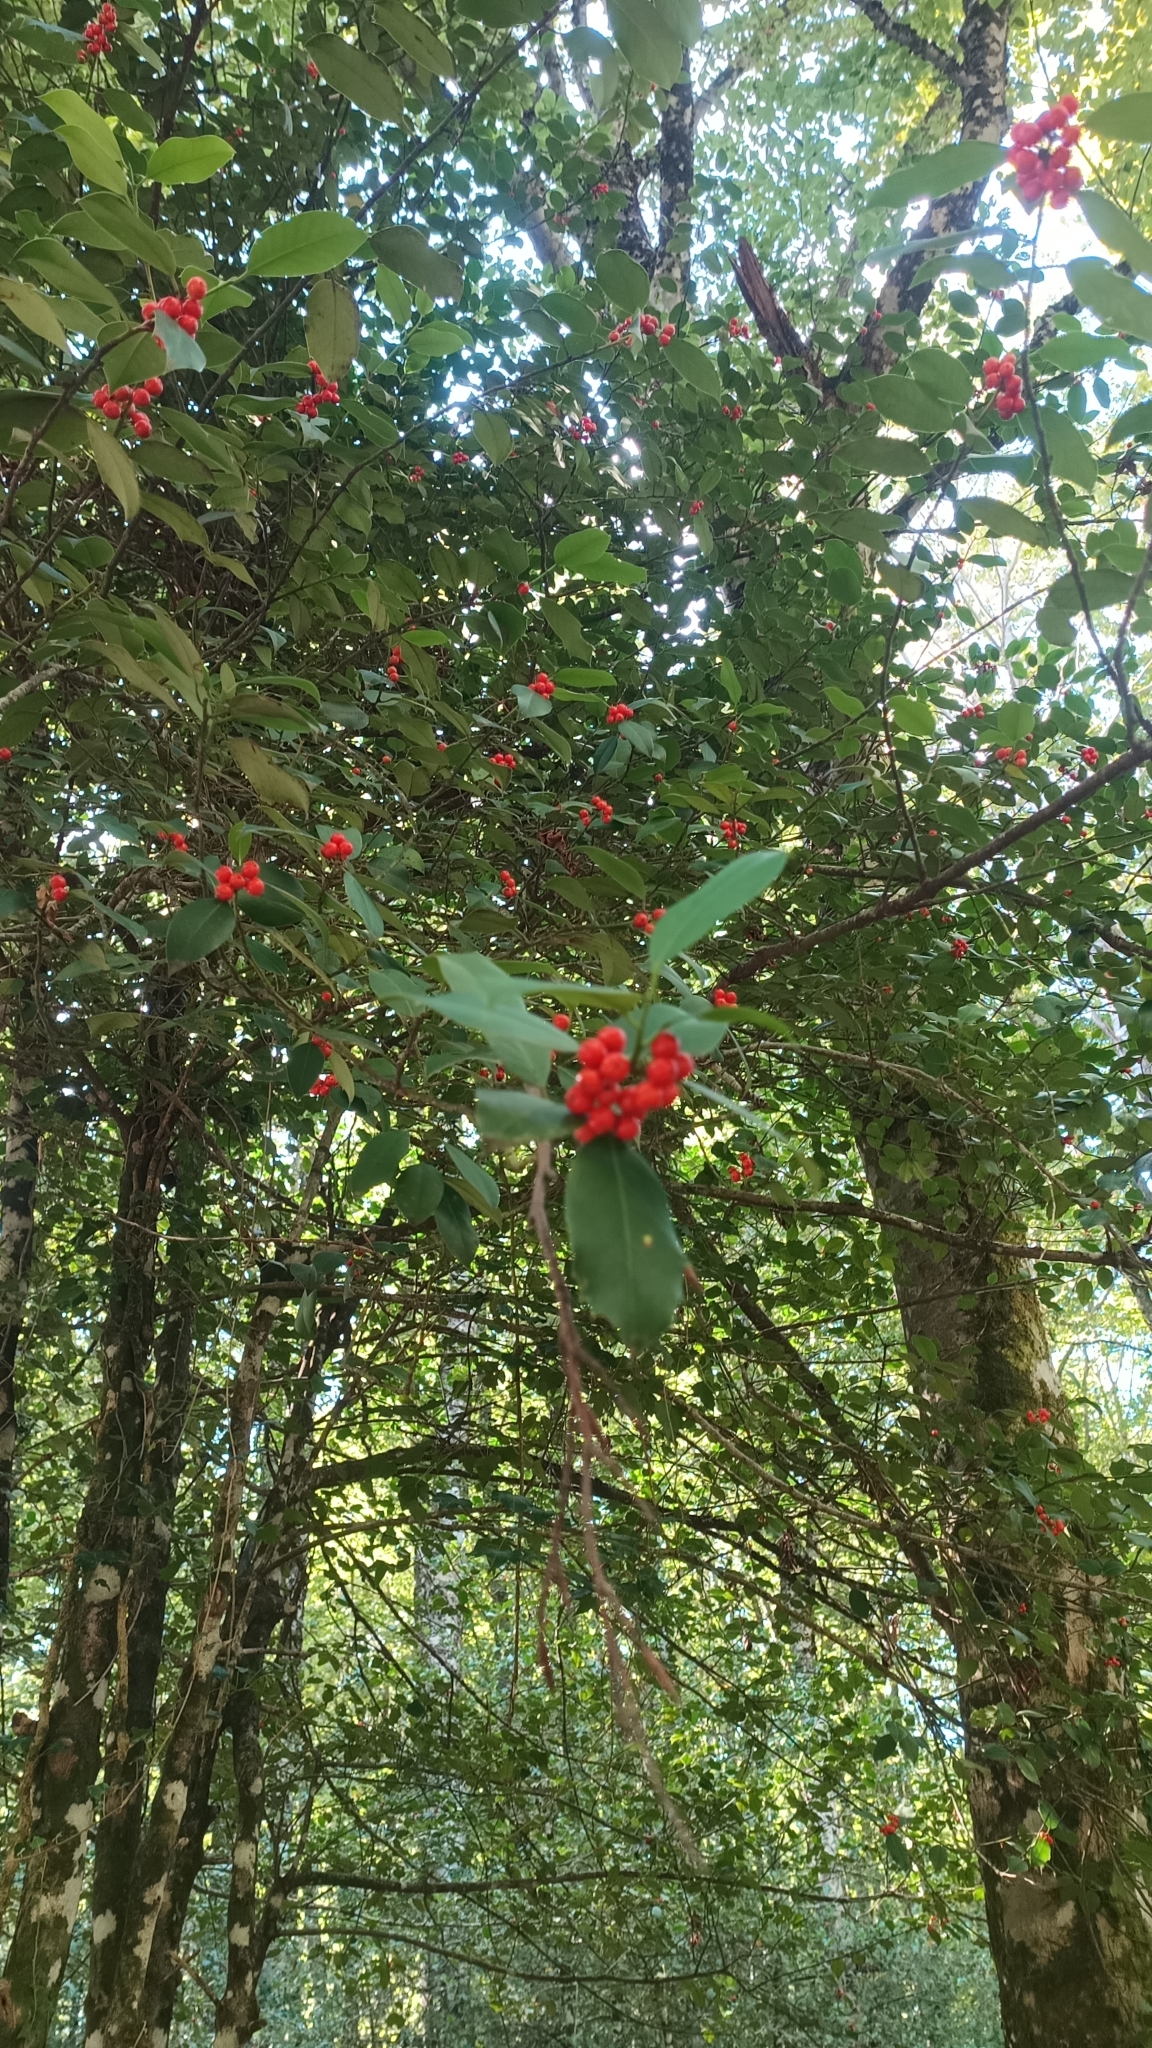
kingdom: Plantae
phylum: Tracheophyta
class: Magnoliopsida
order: Aquifoliales
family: Aquifoliaceae
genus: Ilex
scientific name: Ilex aquifolium
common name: English holly
